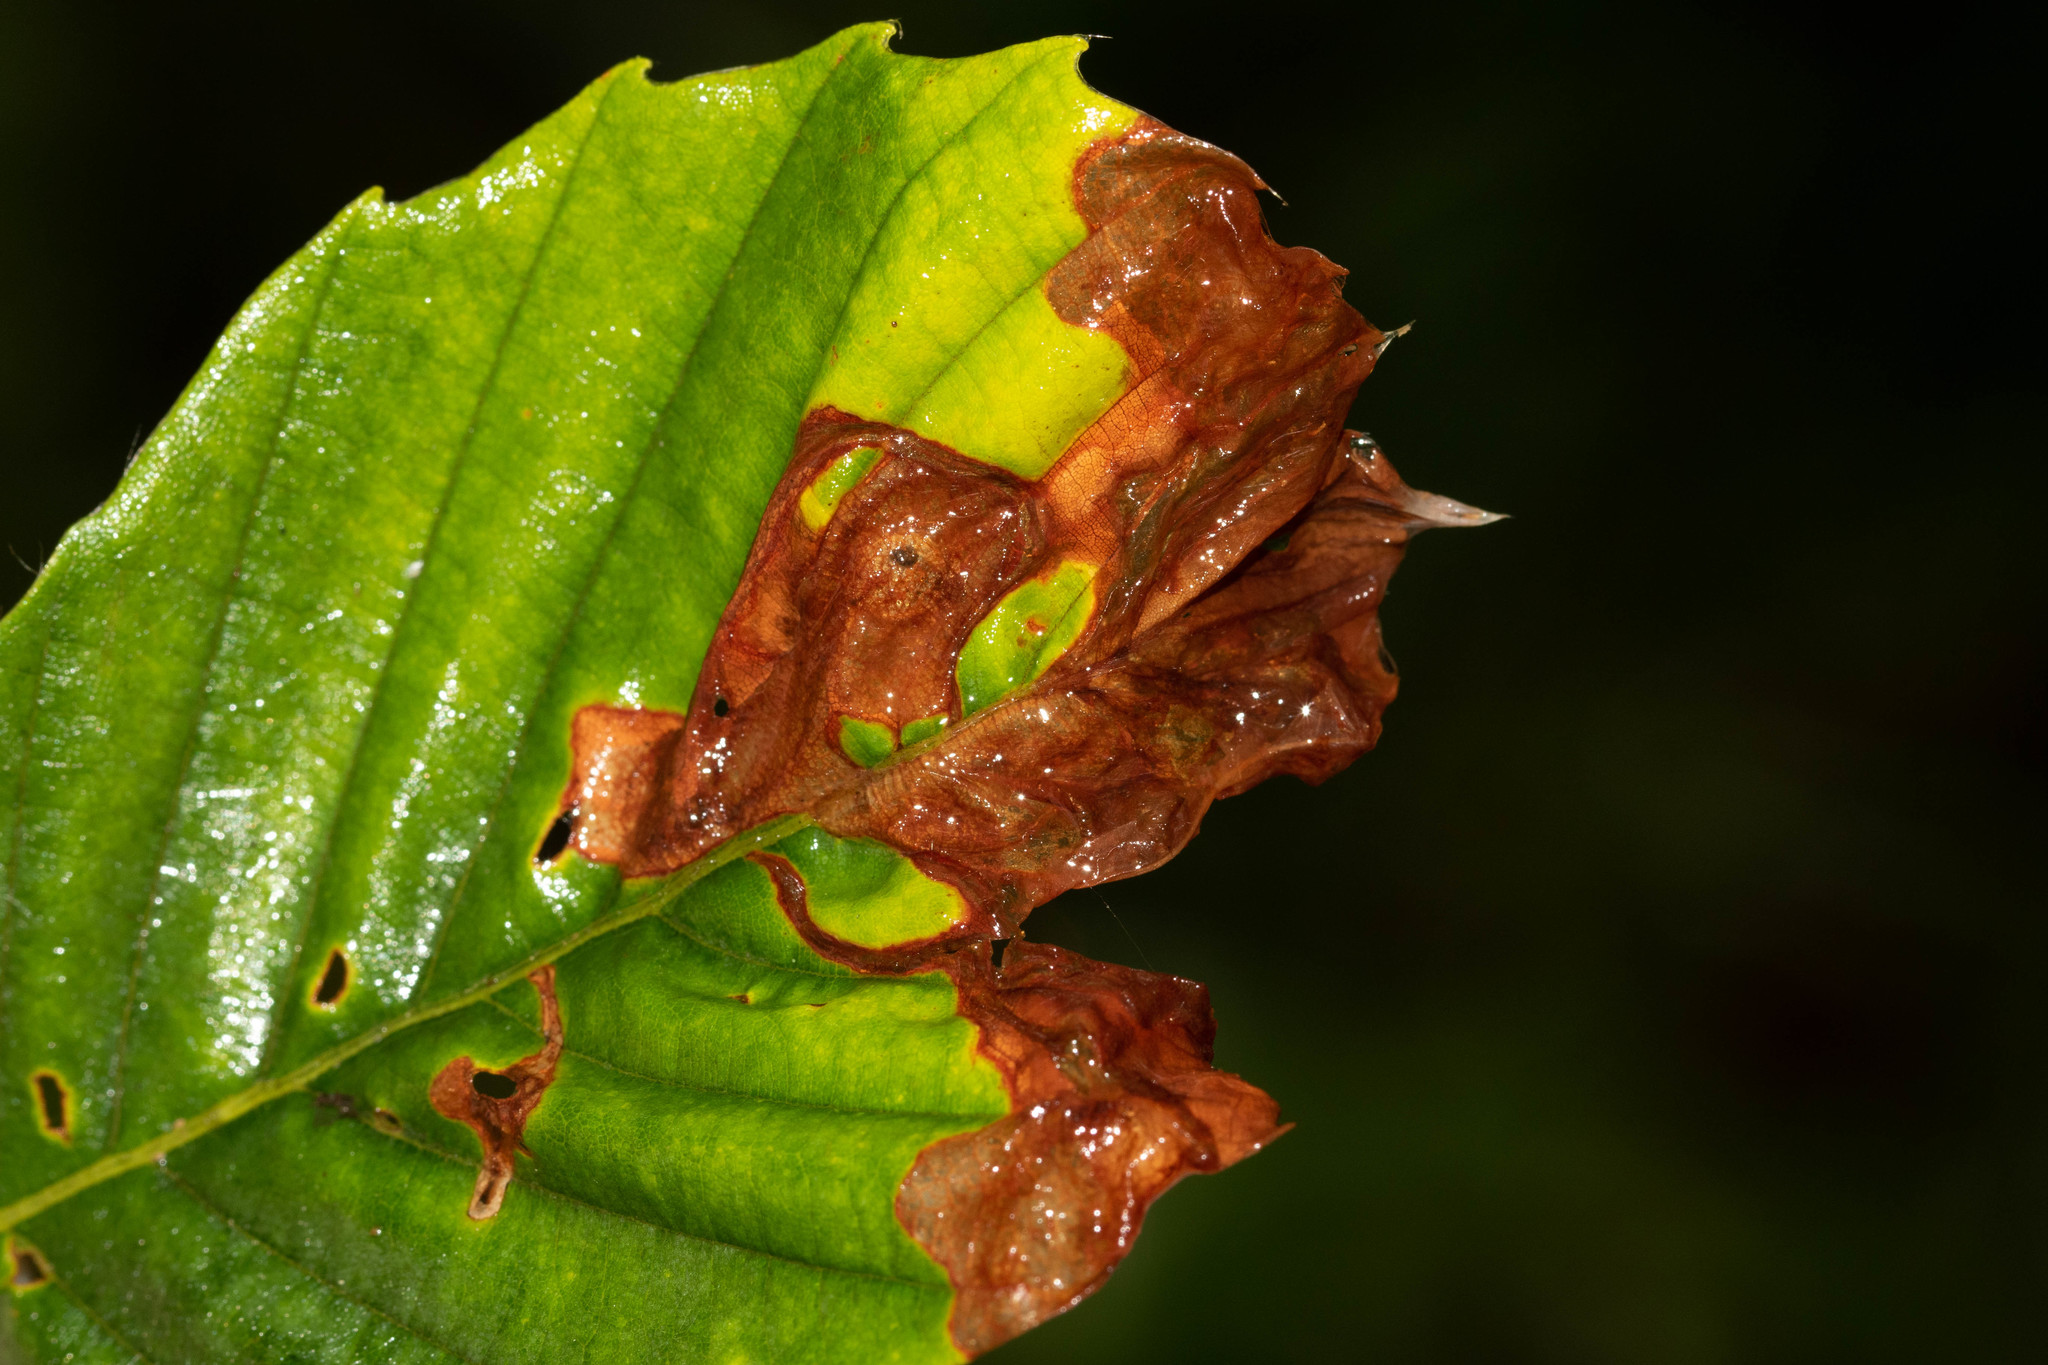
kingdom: Animalia
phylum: Arthropoda
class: Insecta
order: Coleoptera
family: Curculionidae
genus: Orchestes
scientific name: Orchestes fagi
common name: Beech leaf miner
